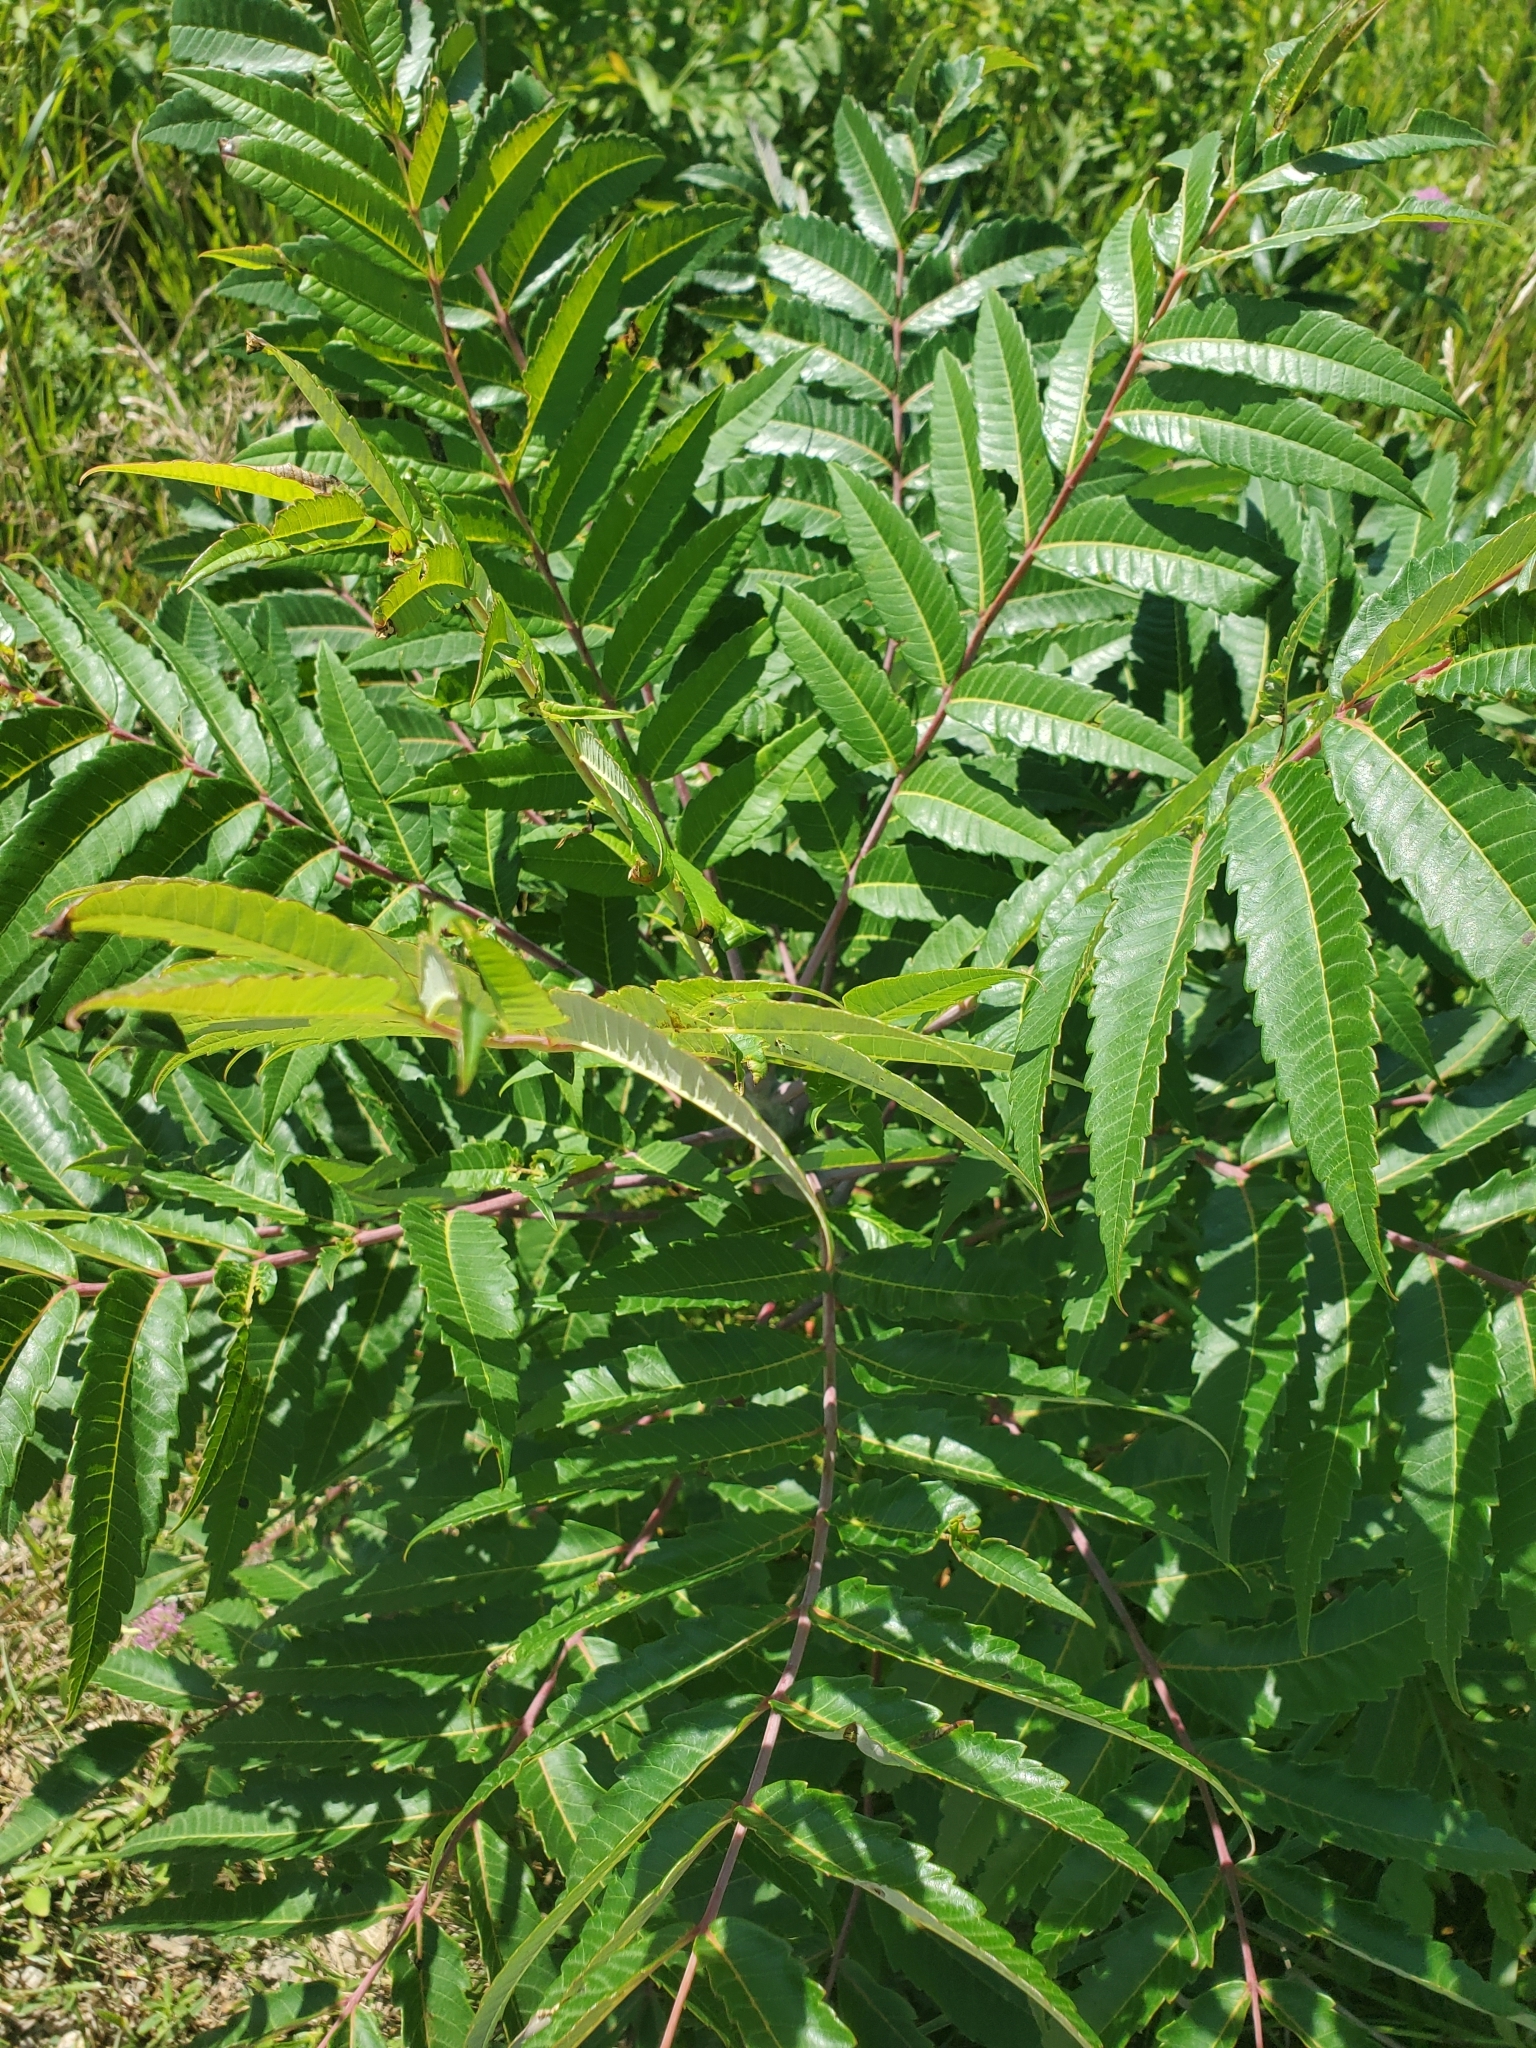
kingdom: Plantae
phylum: Tracheophyta
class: Magnoliopsida
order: Sapindales
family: Anacardiaceae
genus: Rhus
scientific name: Rhus glabra
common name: Scarlet sumac
